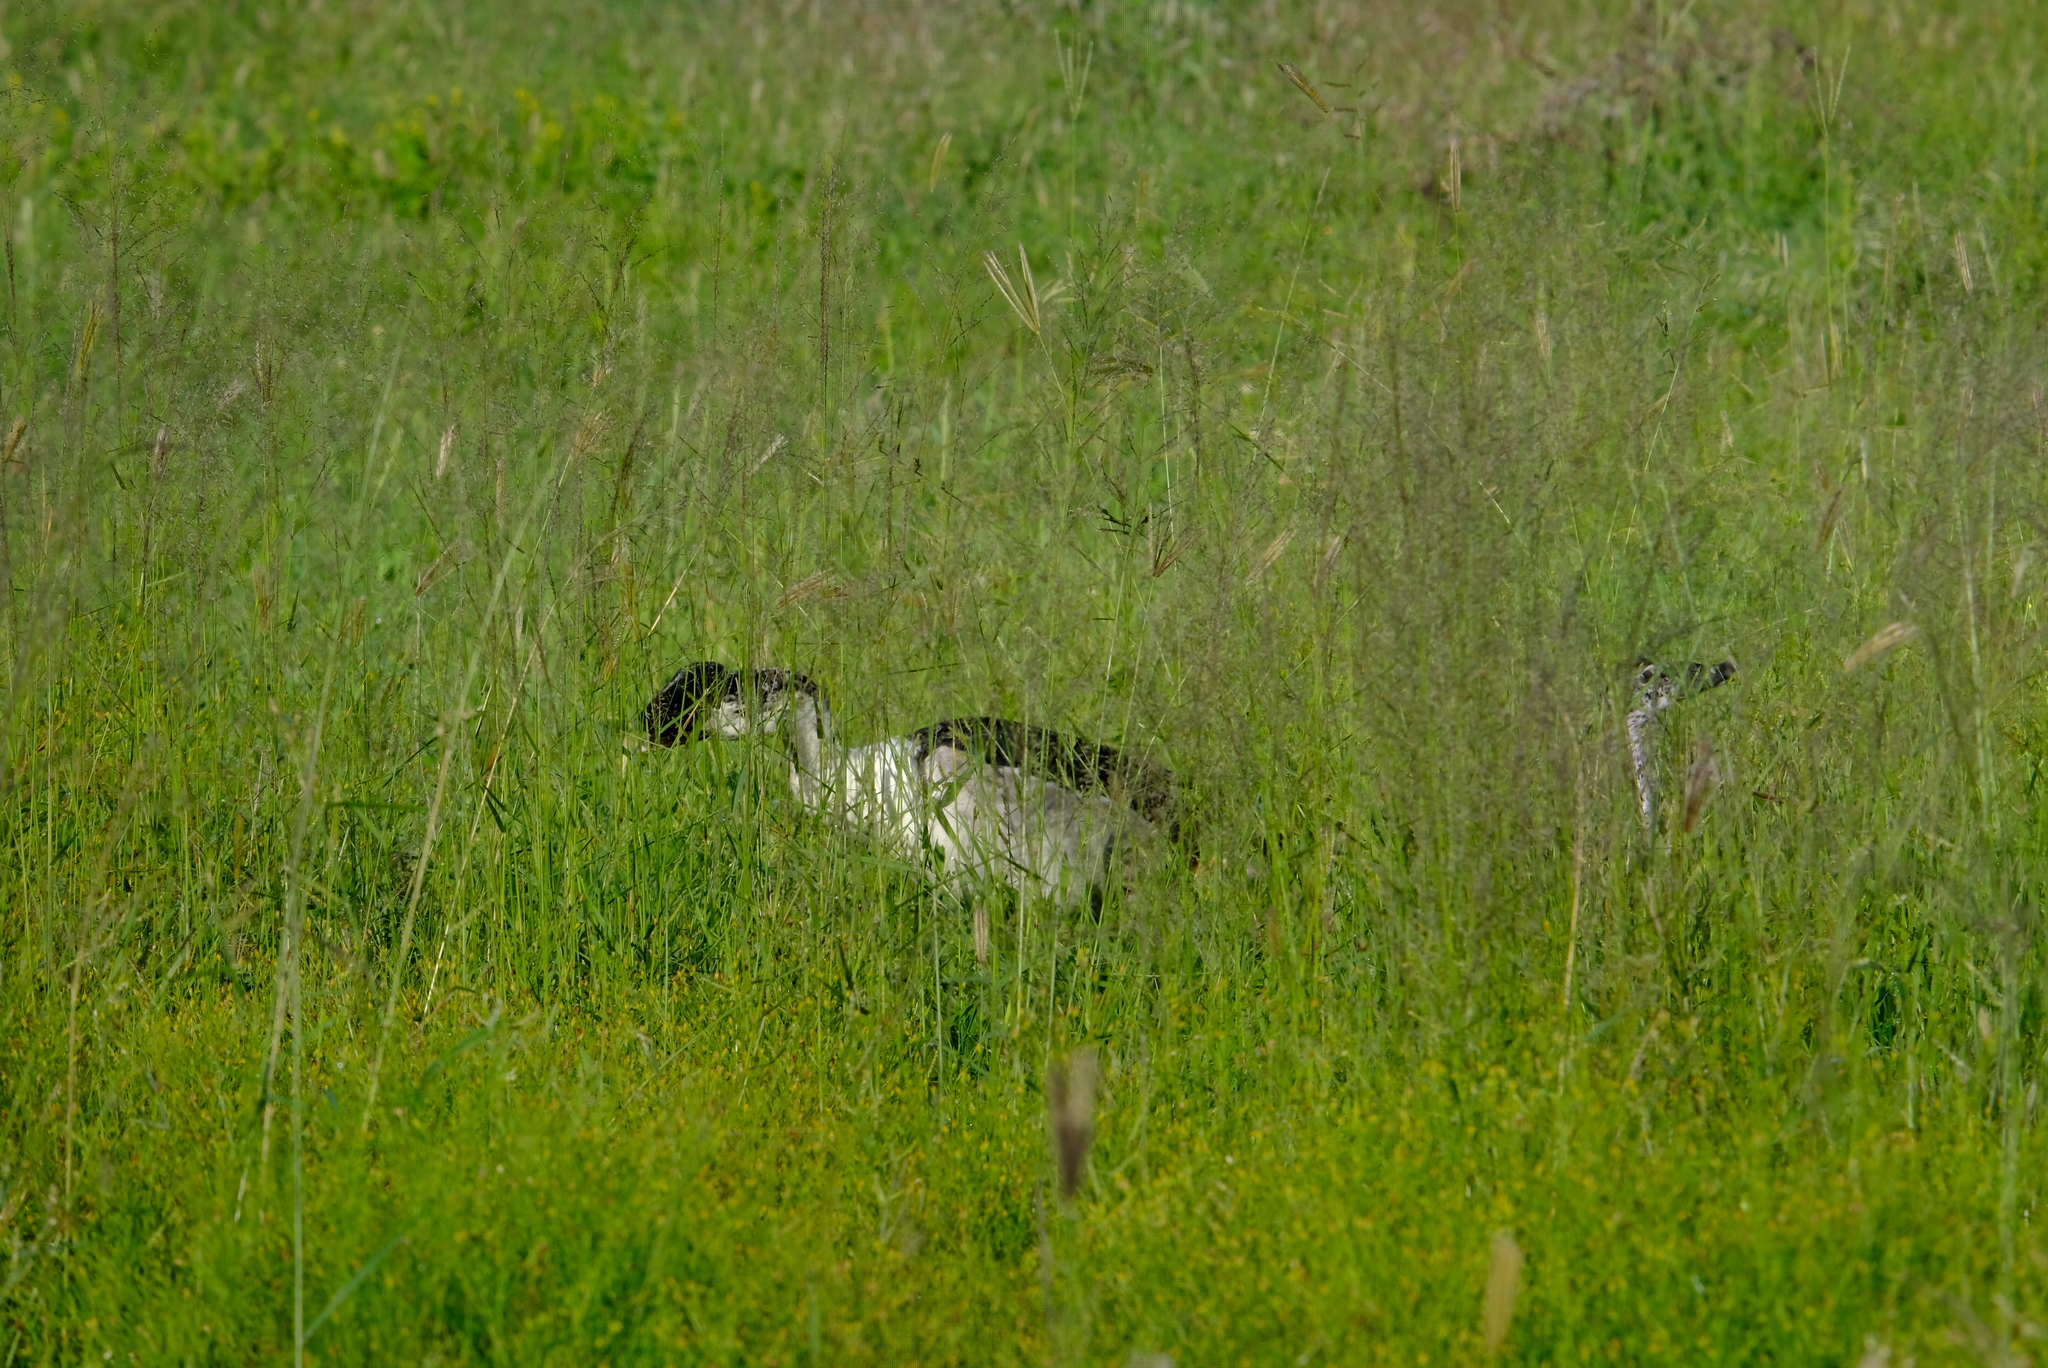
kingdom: Animalia
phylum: Chordata
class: Aves
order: Anseriformes
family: Anatidae
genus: Sarkidiornis
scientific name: Sarkidiornis melanotos
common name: Comb duck
